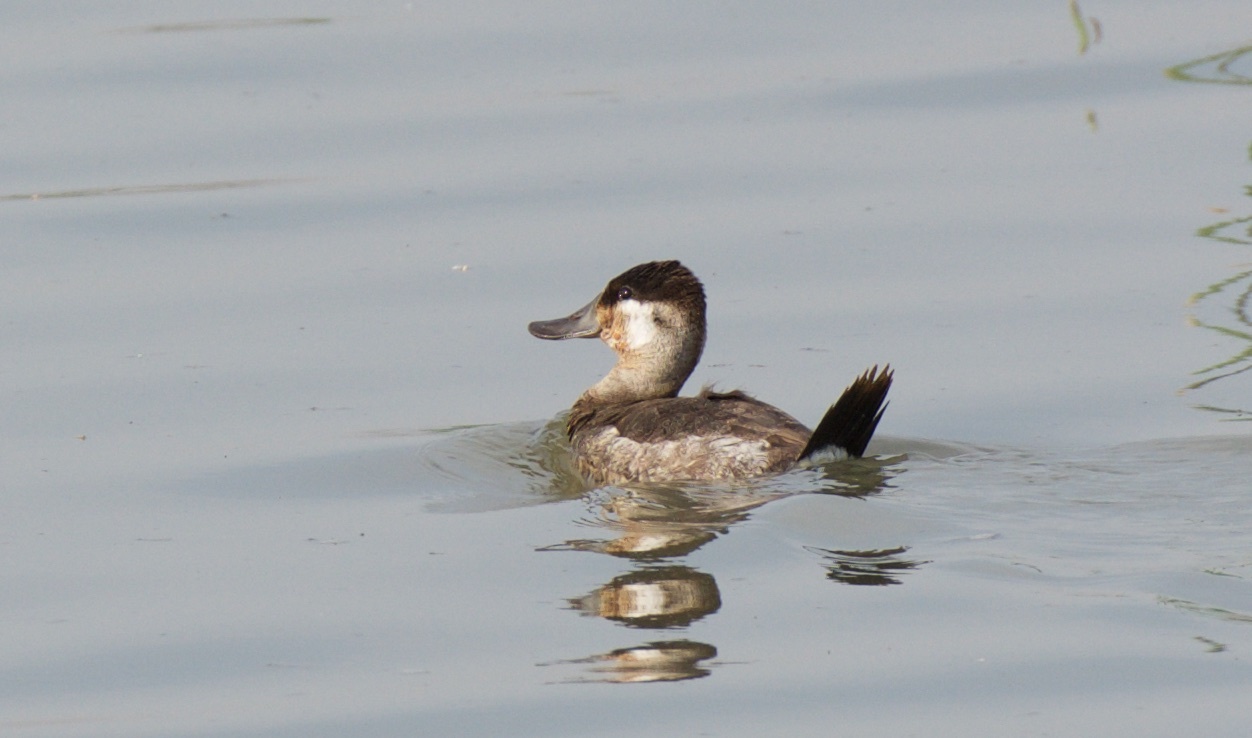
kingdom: Animalia
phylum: Chordata
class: Aves
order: Anseriformes
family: Anatidae
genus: Oxyura
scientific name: Oxyura jamaicensis
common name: Ruddy duck
